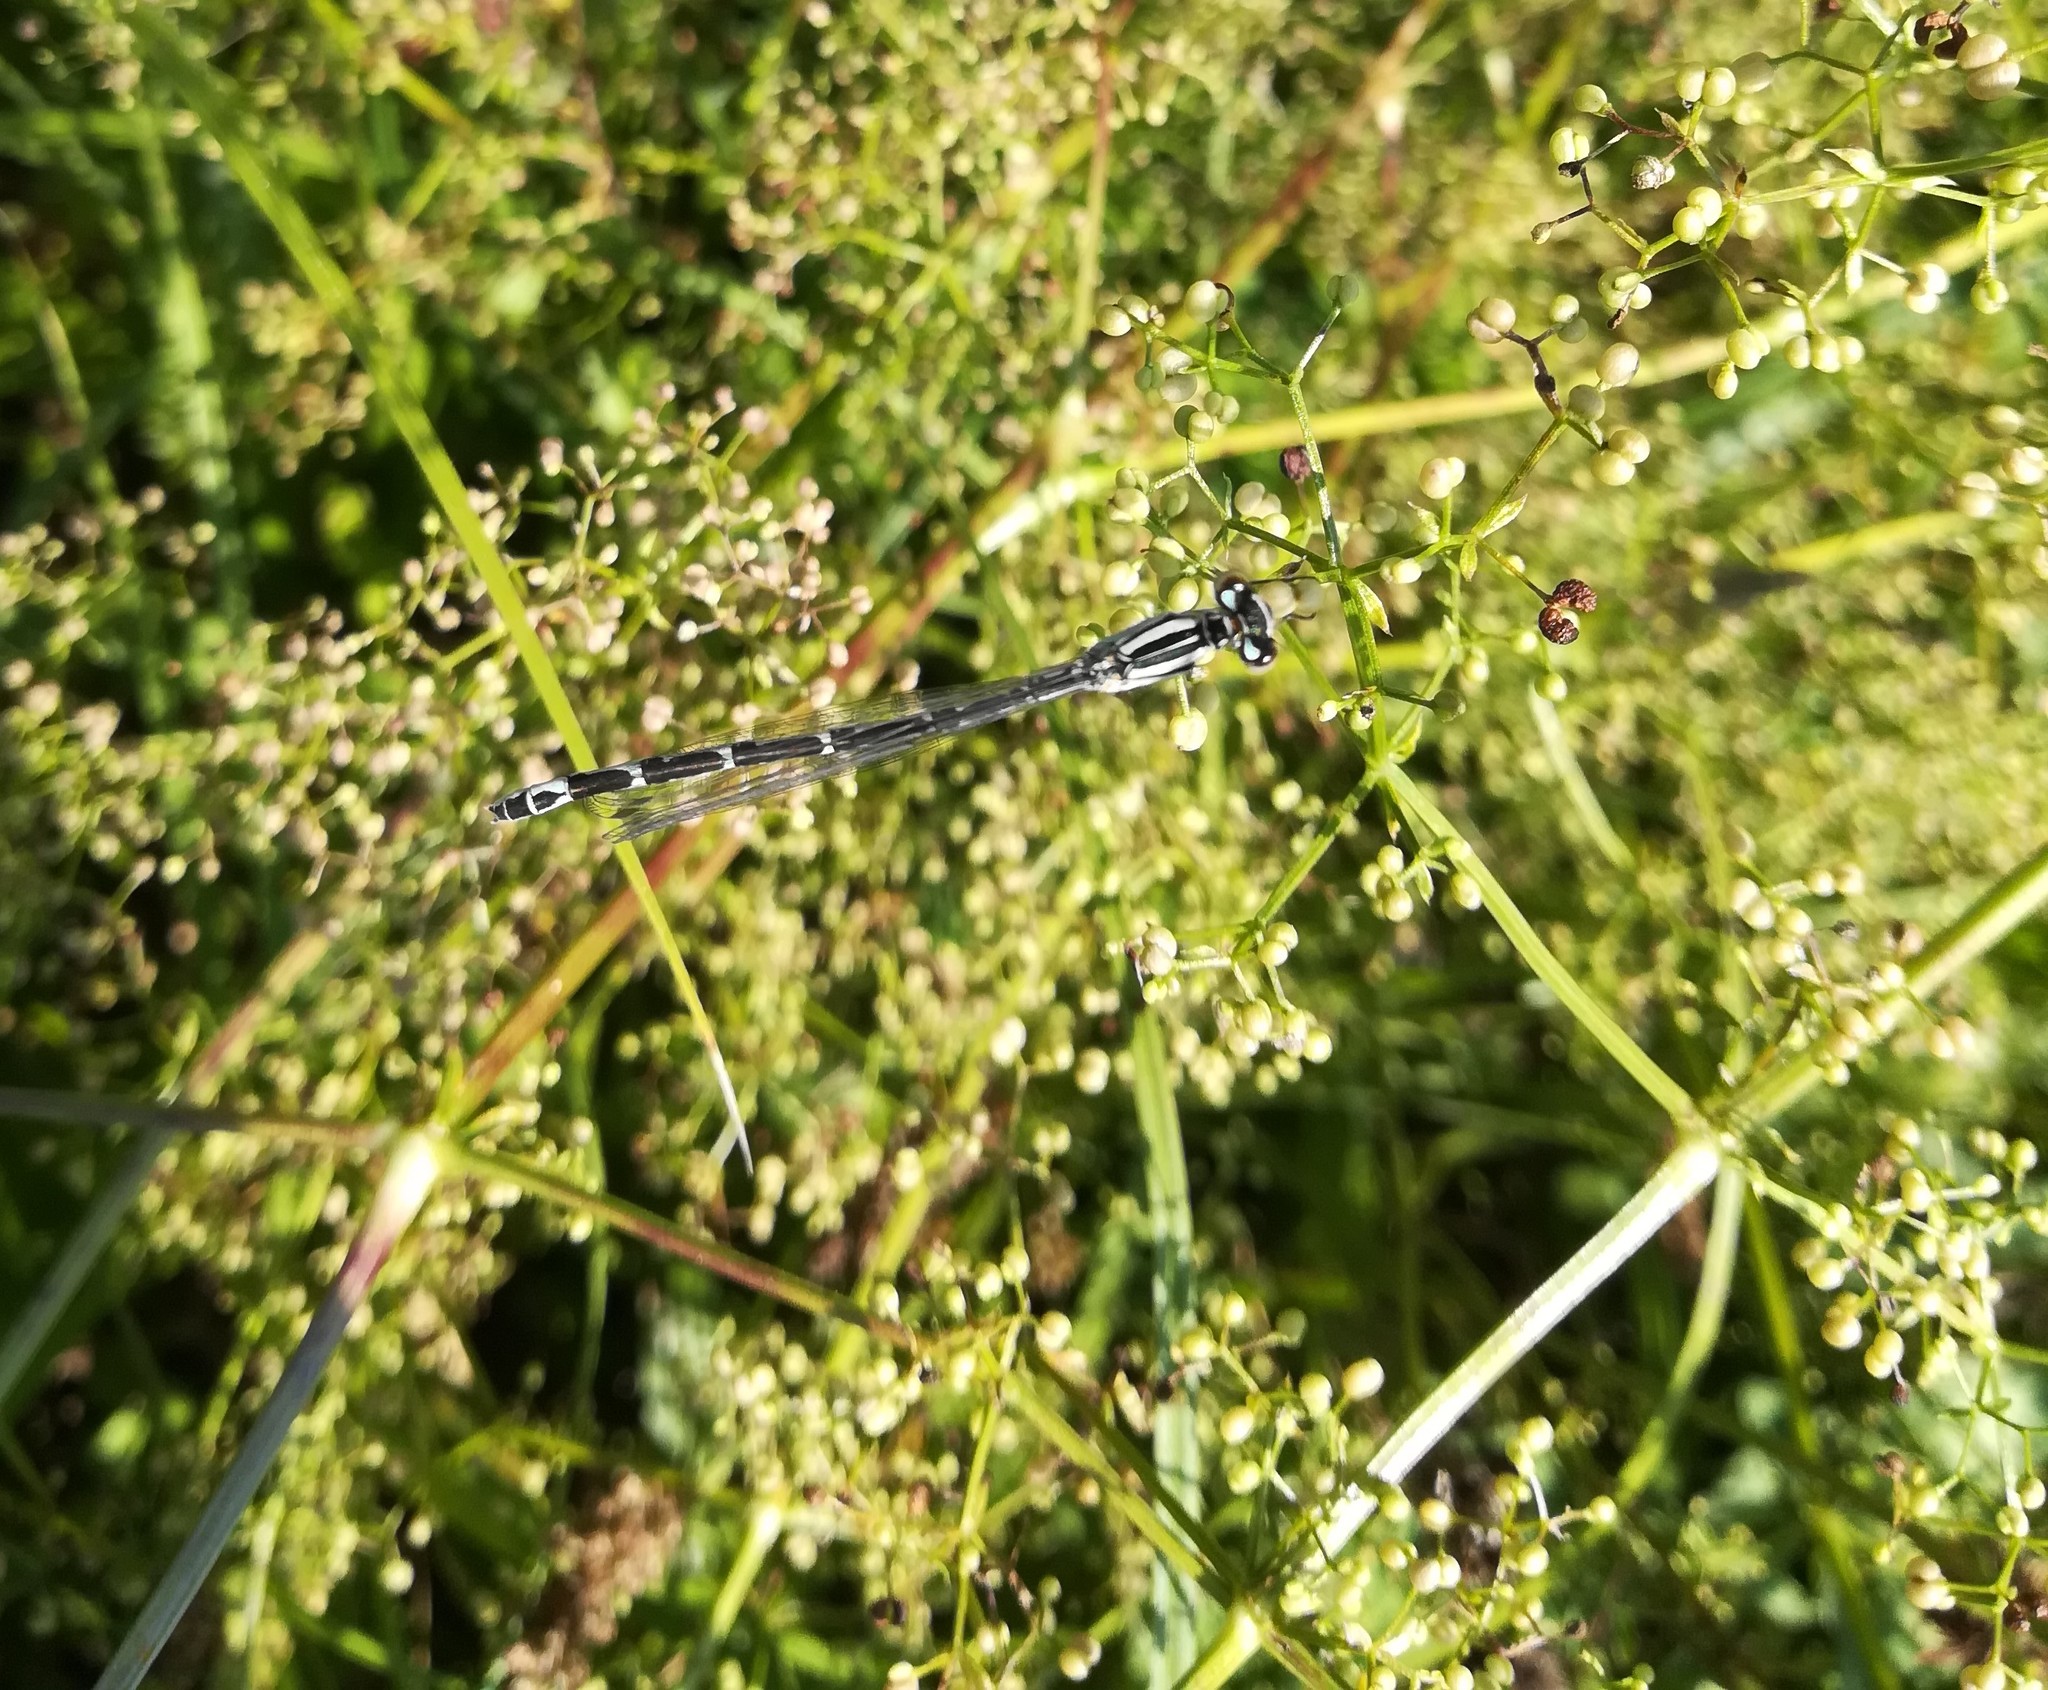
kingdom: Animalia
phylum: Arthropoda
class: Insecta
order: Odonata
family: Coenagrionidae
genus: Enallagma
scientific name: Enallagma cyathigerum
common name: Common blue damselfly
